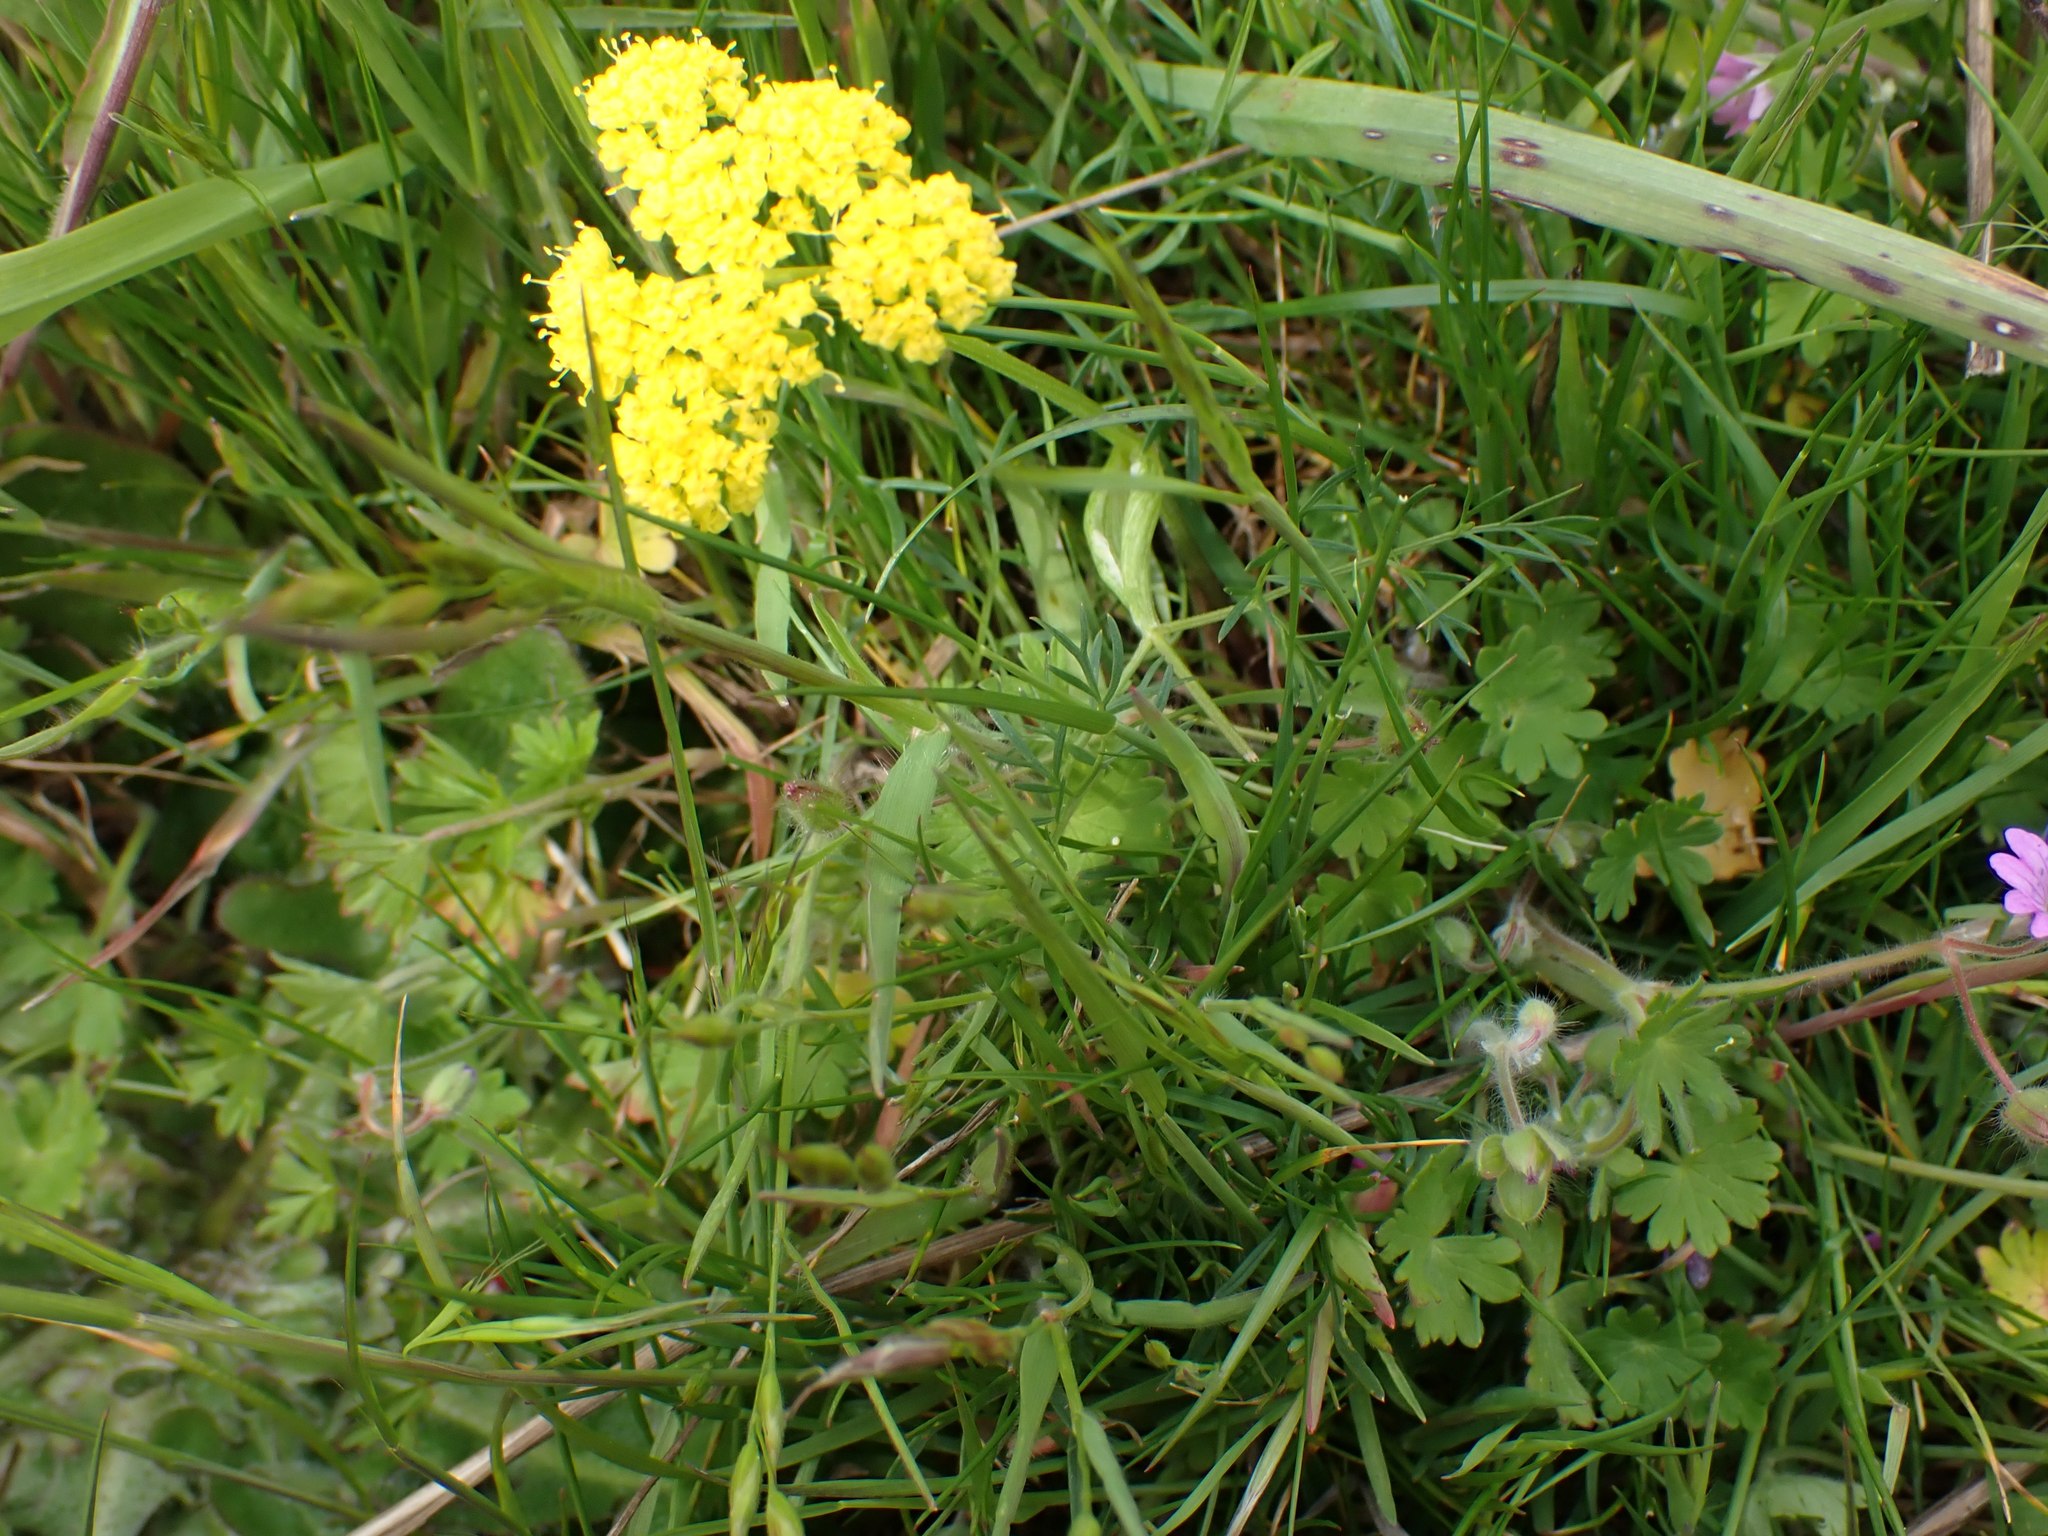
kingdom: Plantae
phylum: Tracheophyta
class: Magnoliopsida
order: Apiales
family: Apiaceae
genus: Lomatium
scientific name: Lomatium utriculatum
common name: Fine-leaf desert-parsley
